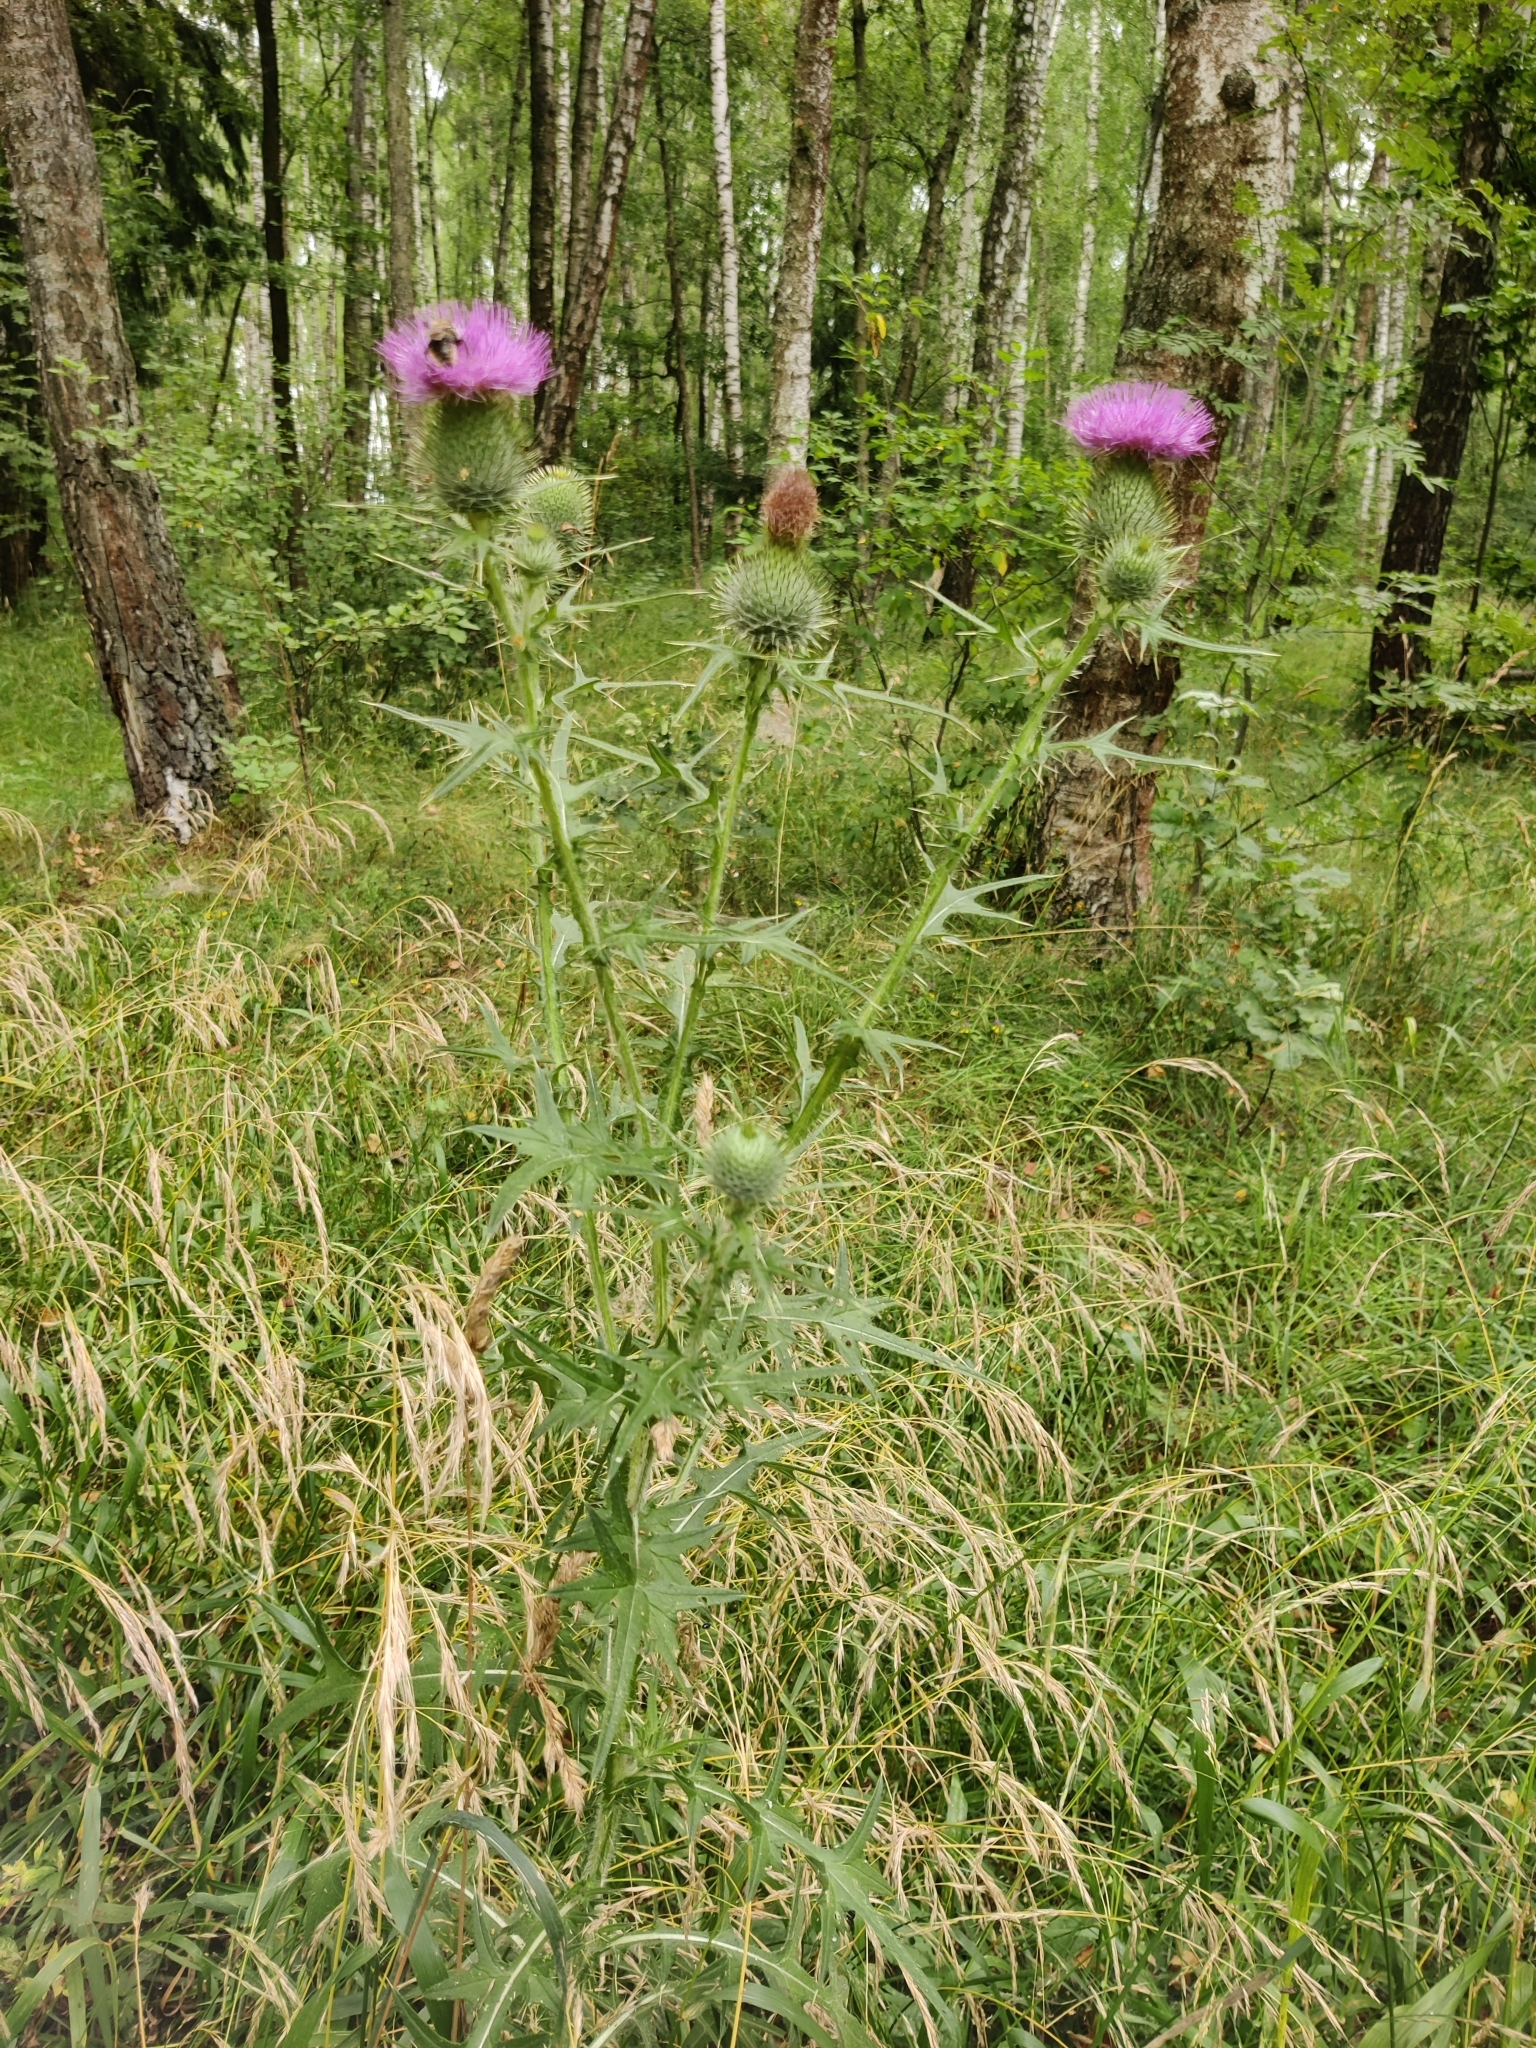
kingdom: Plantae
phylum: Tracheophyta
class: Magnoliopsida
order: Asterales
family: Asteraceae
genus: Cirsium
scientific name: Cirsium vulgare
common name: Bull thistle
